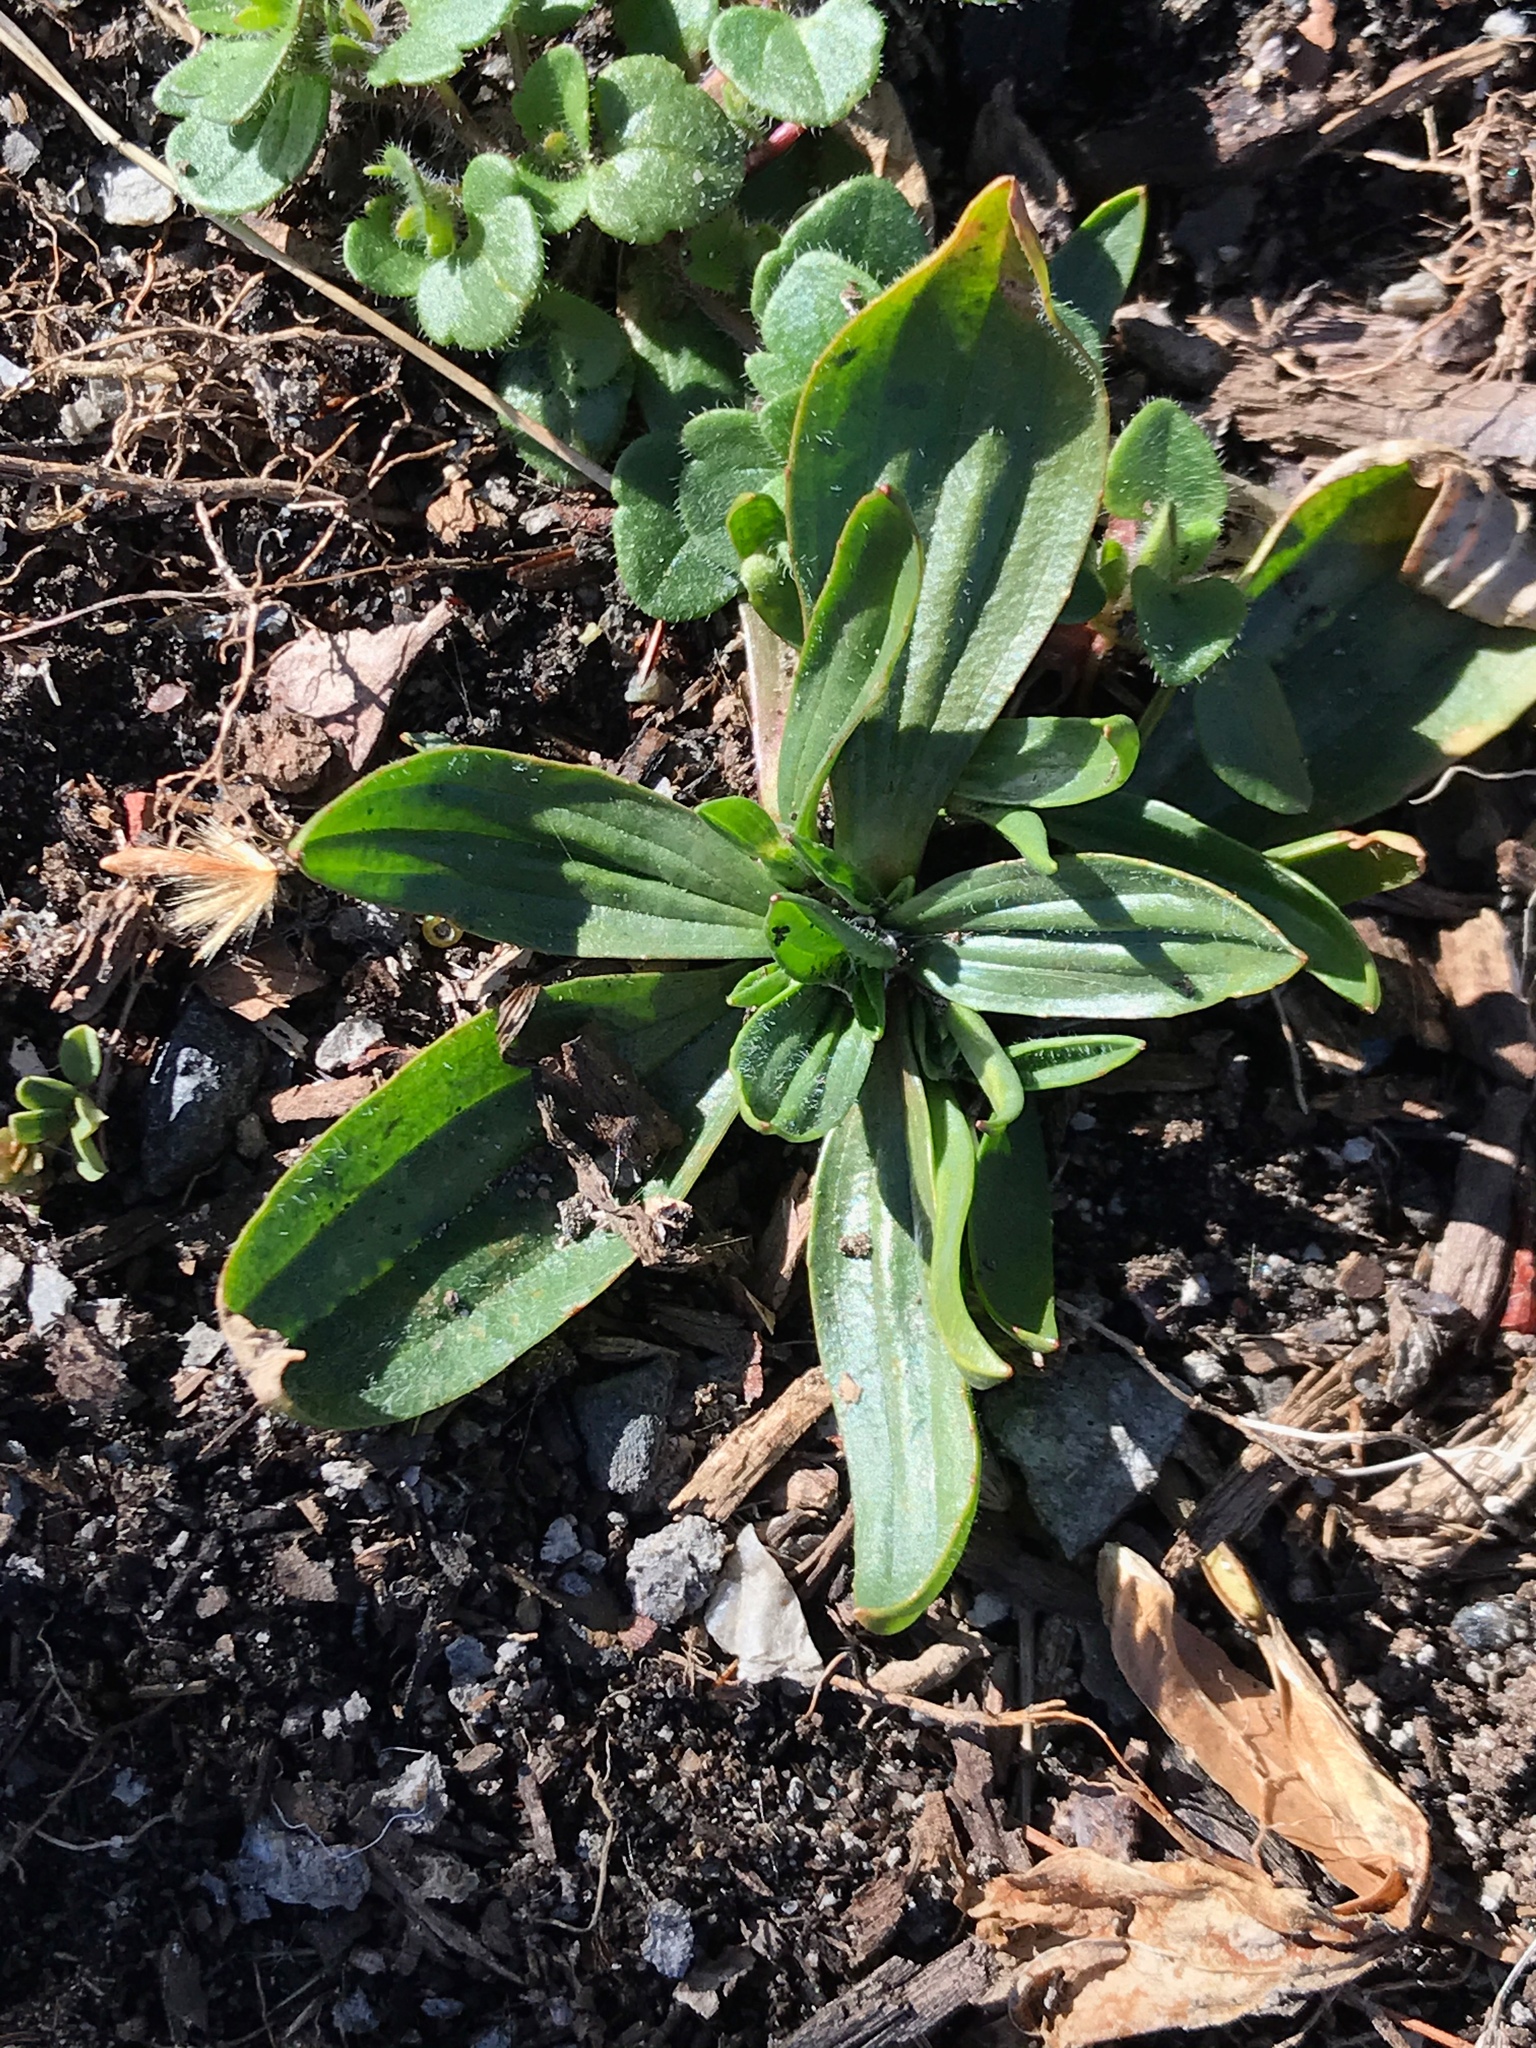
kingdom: Plantae
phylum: Tracheophyta
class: Magnoliopsida
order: Lamiales
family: Plantaginaceae
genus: Plantago
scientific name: Plantago lanceolata
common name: Ribwort plantain
